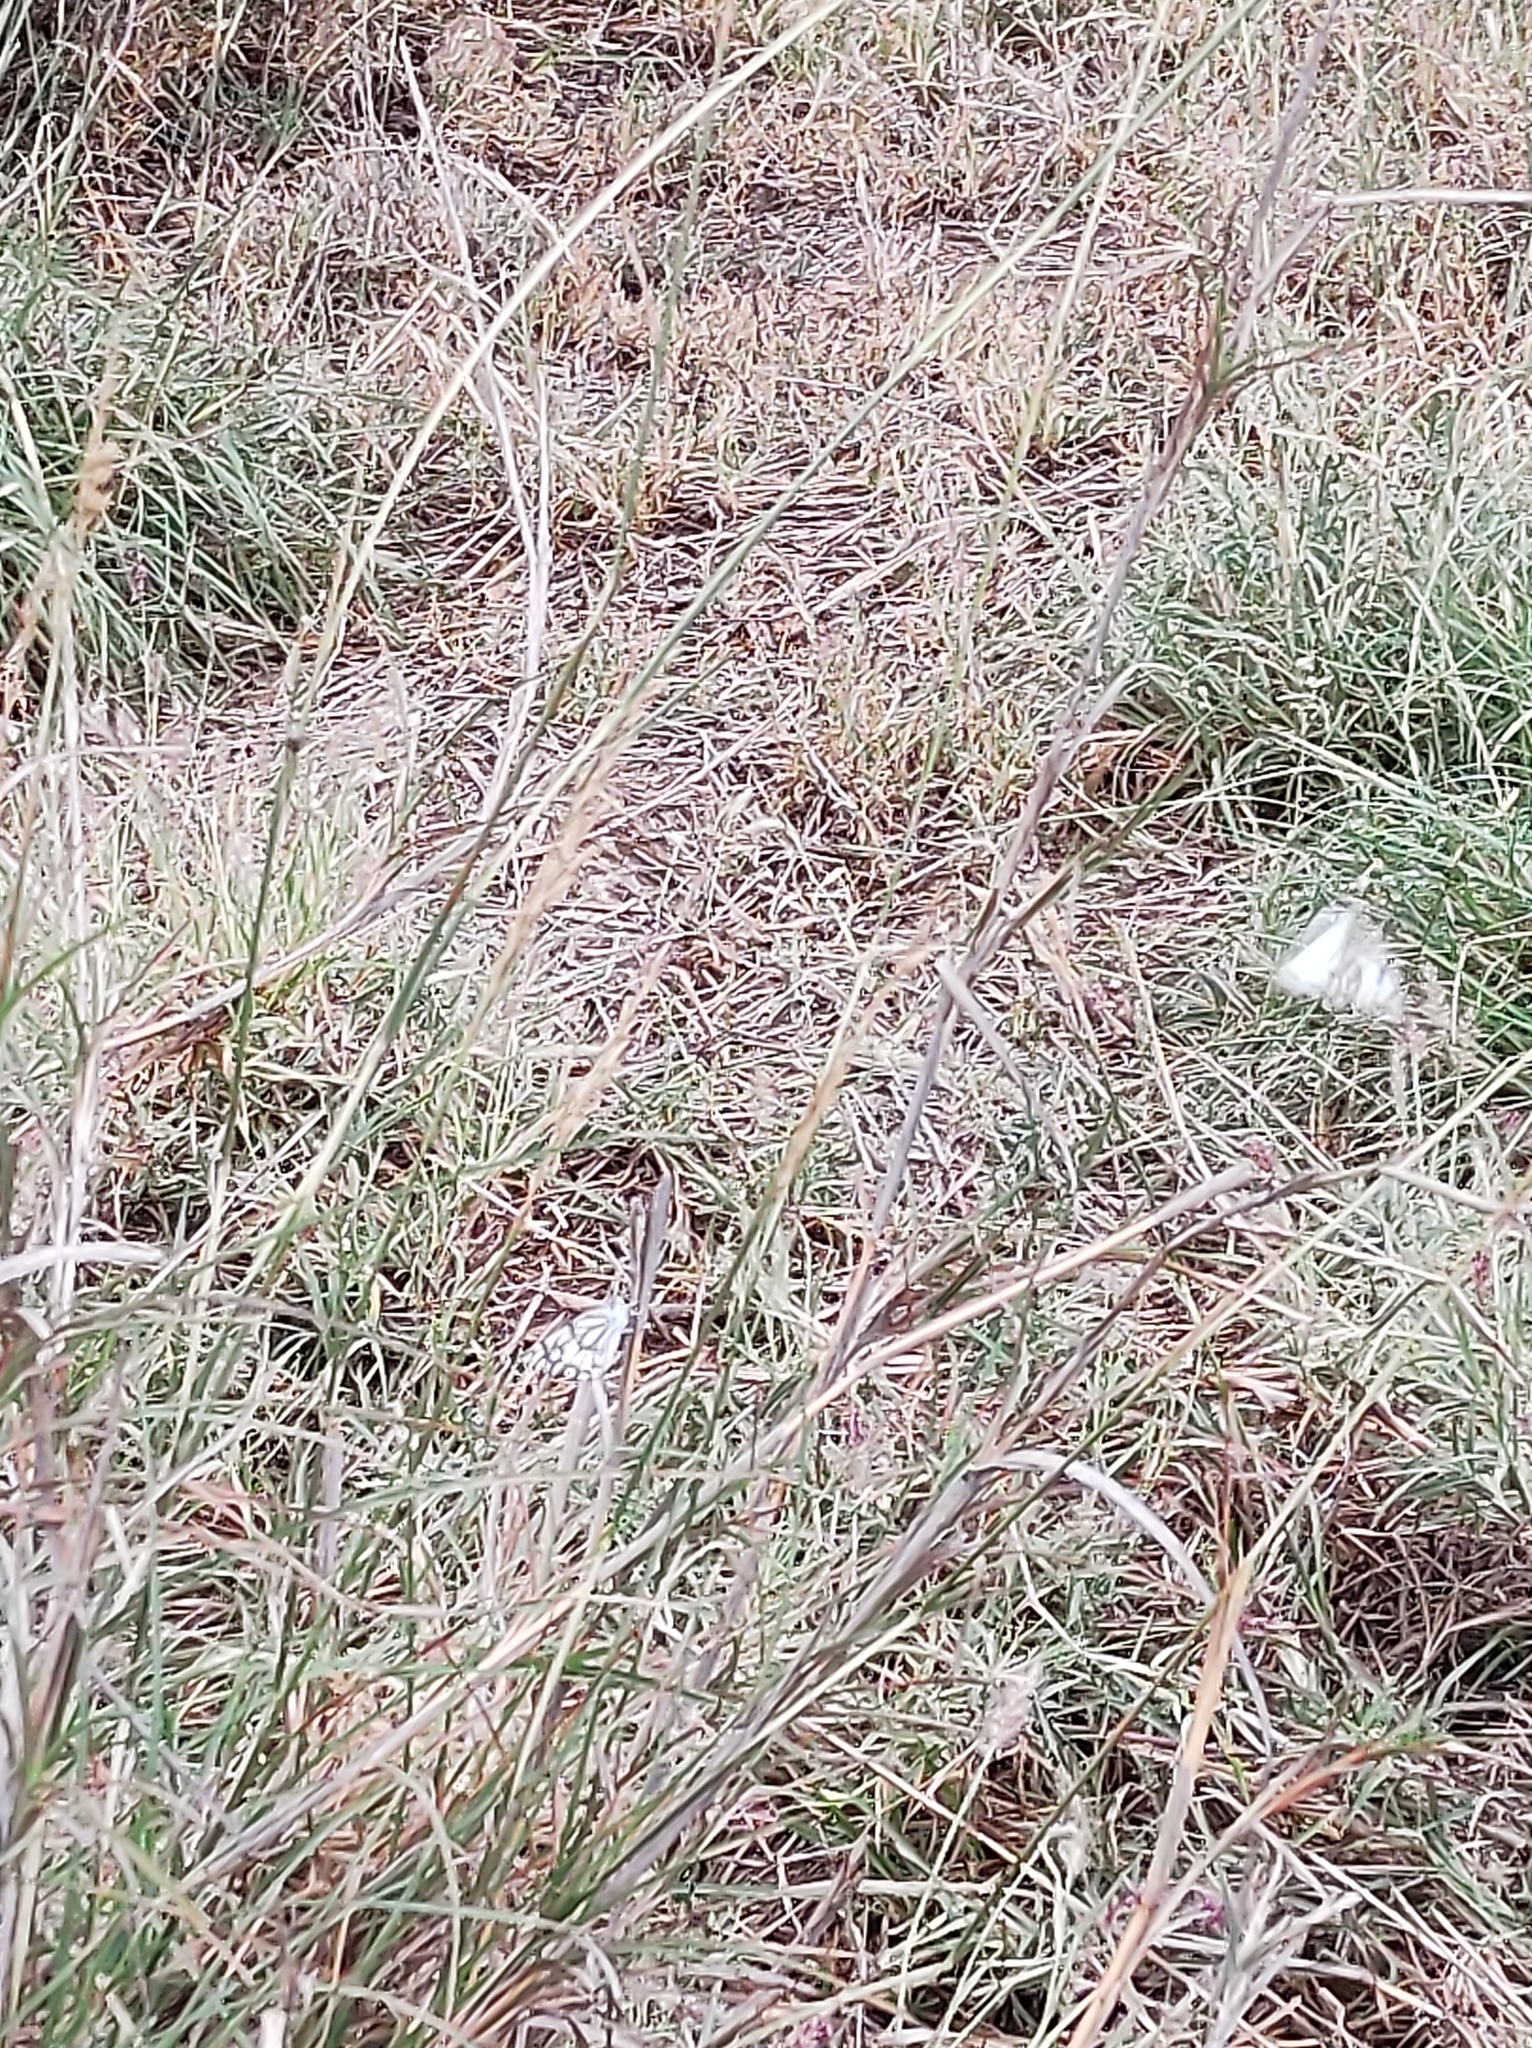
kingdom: Animalia
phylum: Arthropoda
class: Insecta
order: Lepidoptera
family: Pieridae
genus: Belenois
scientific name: Belenois aurota
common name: Brown-veined white
